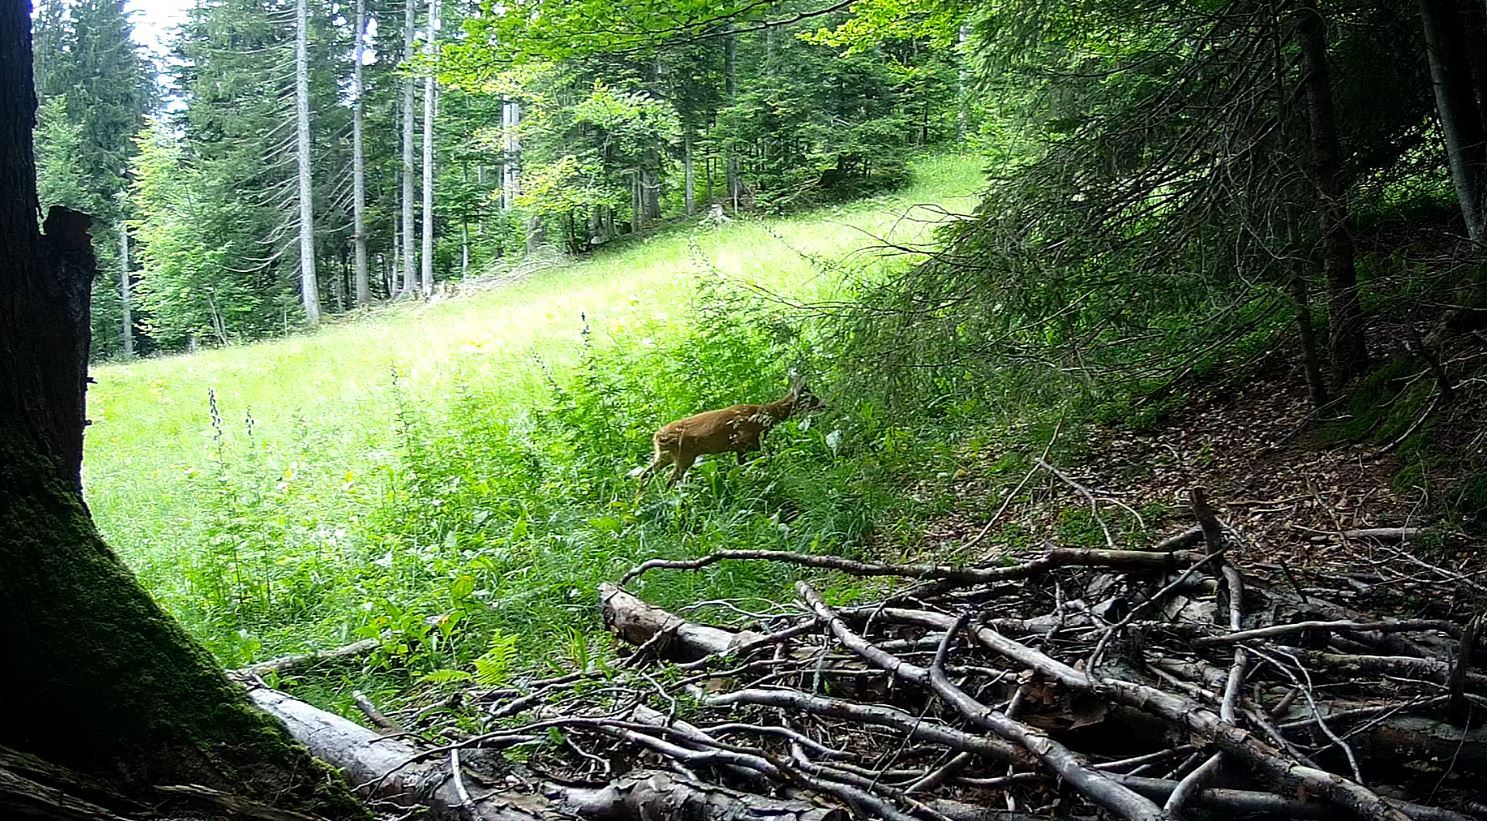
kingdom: Animalia
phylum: Chordata
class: Mammalia
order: Artiodactyla
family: Cervidae
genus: Capreolus
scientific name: Capreolus capreolus
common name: Western roe deer
